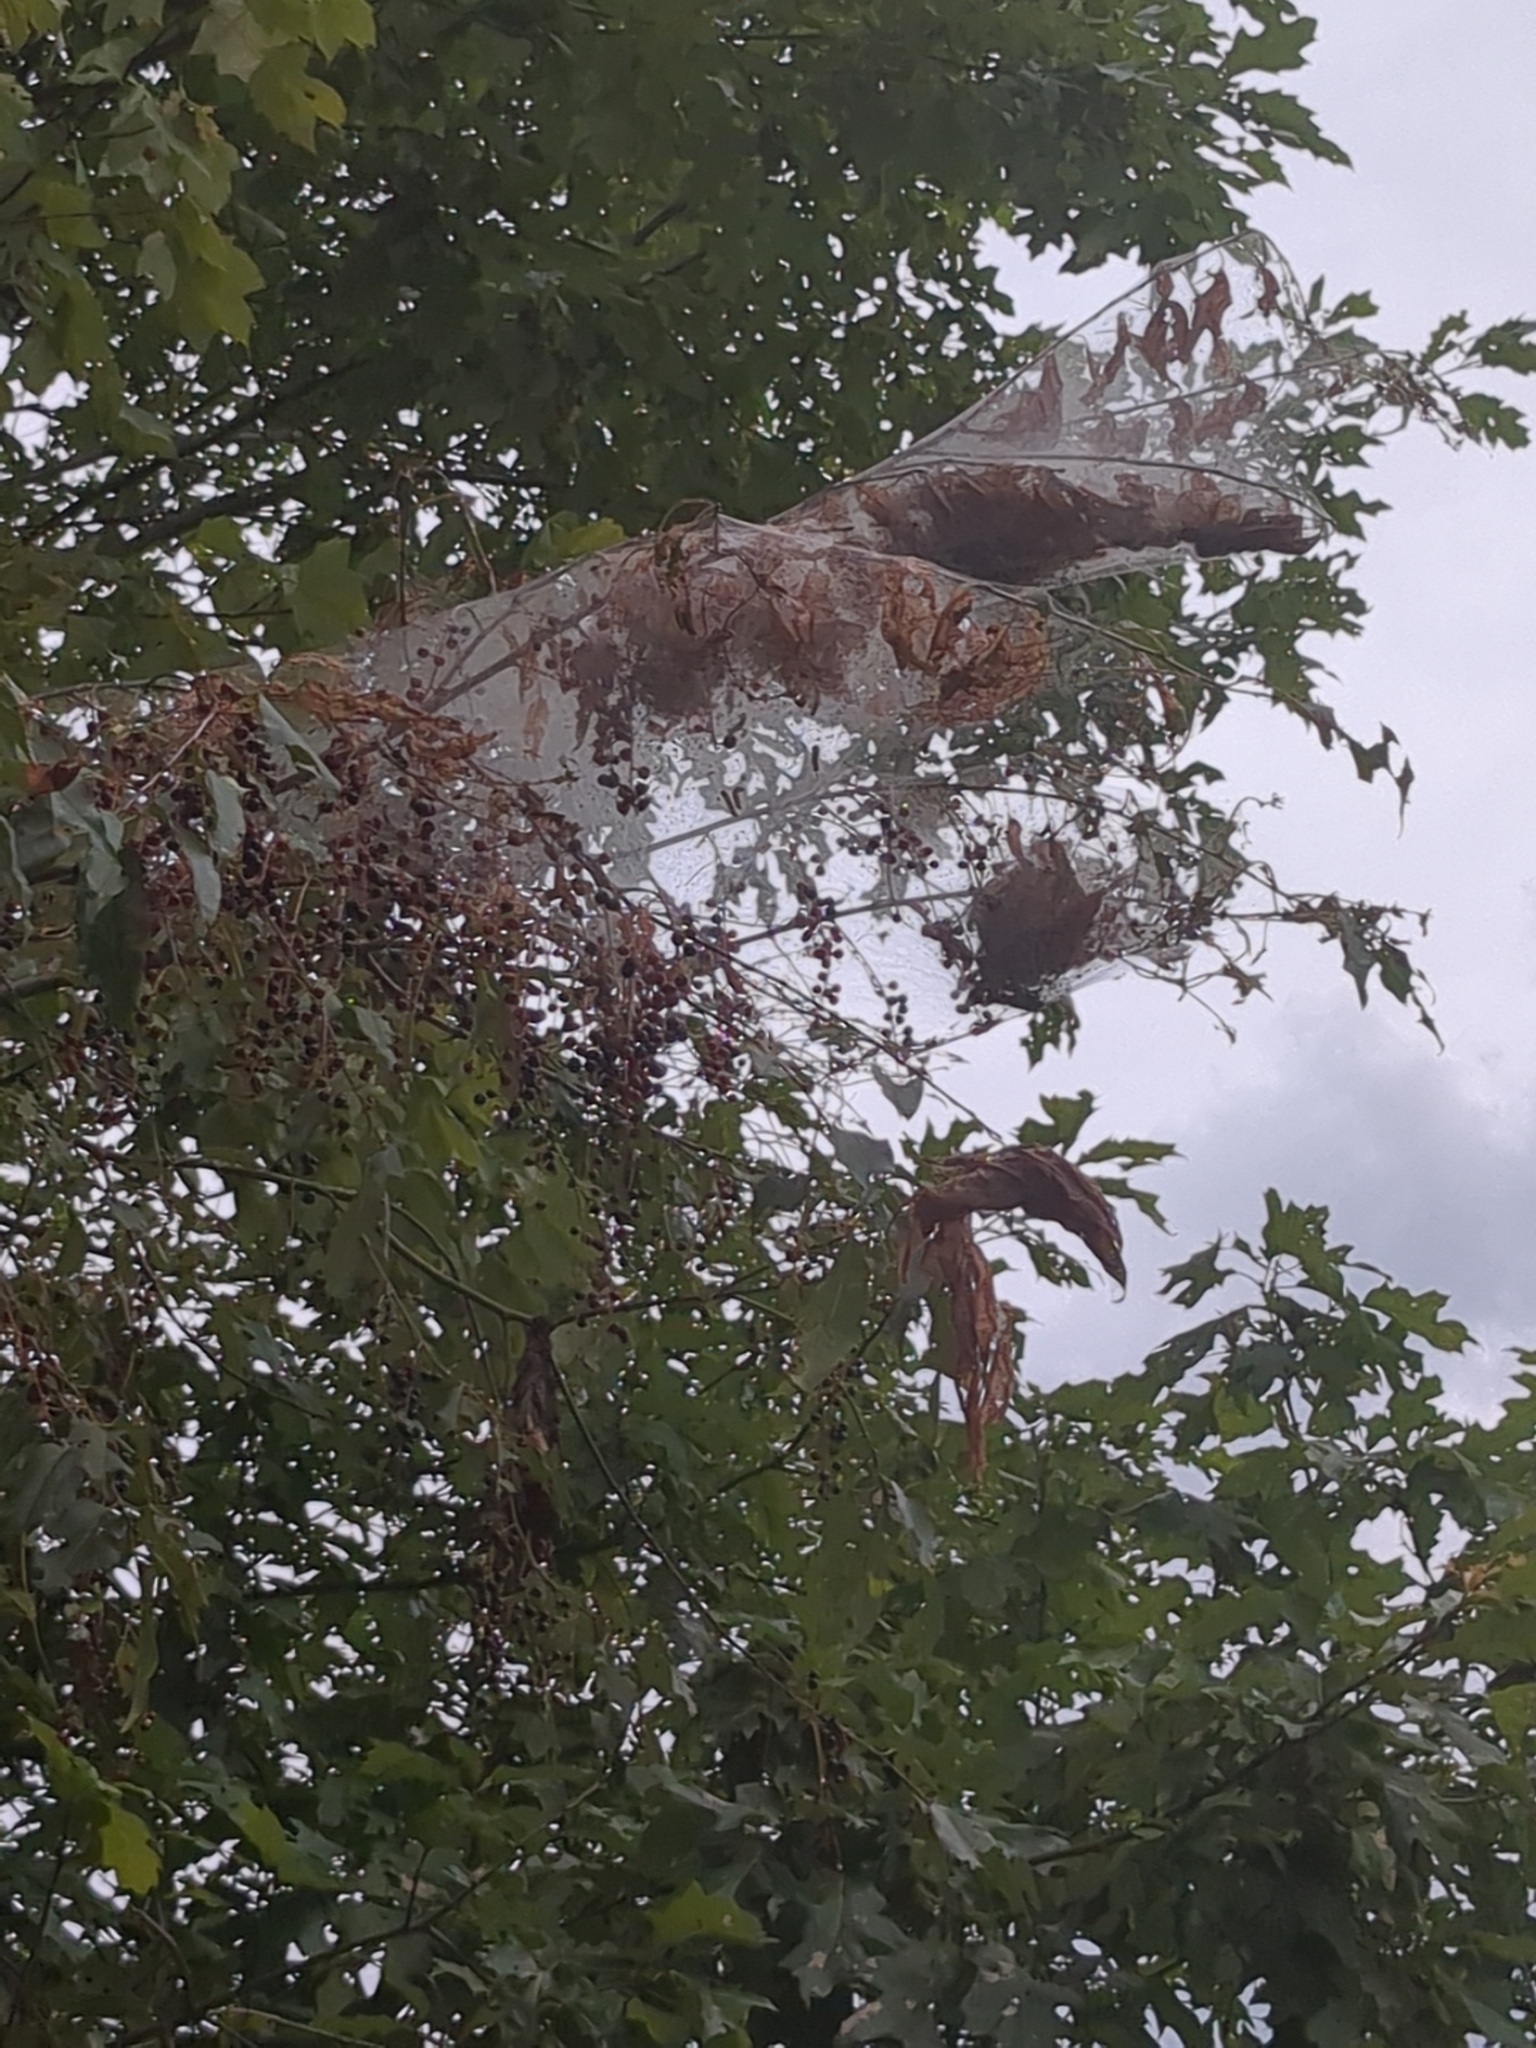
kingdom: Plantae
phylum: Tracheophyta
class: Magnoliopsida
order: Rosales
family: Rosaceae
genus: Prunus
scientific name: Prunus serotina
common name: Black cherry
